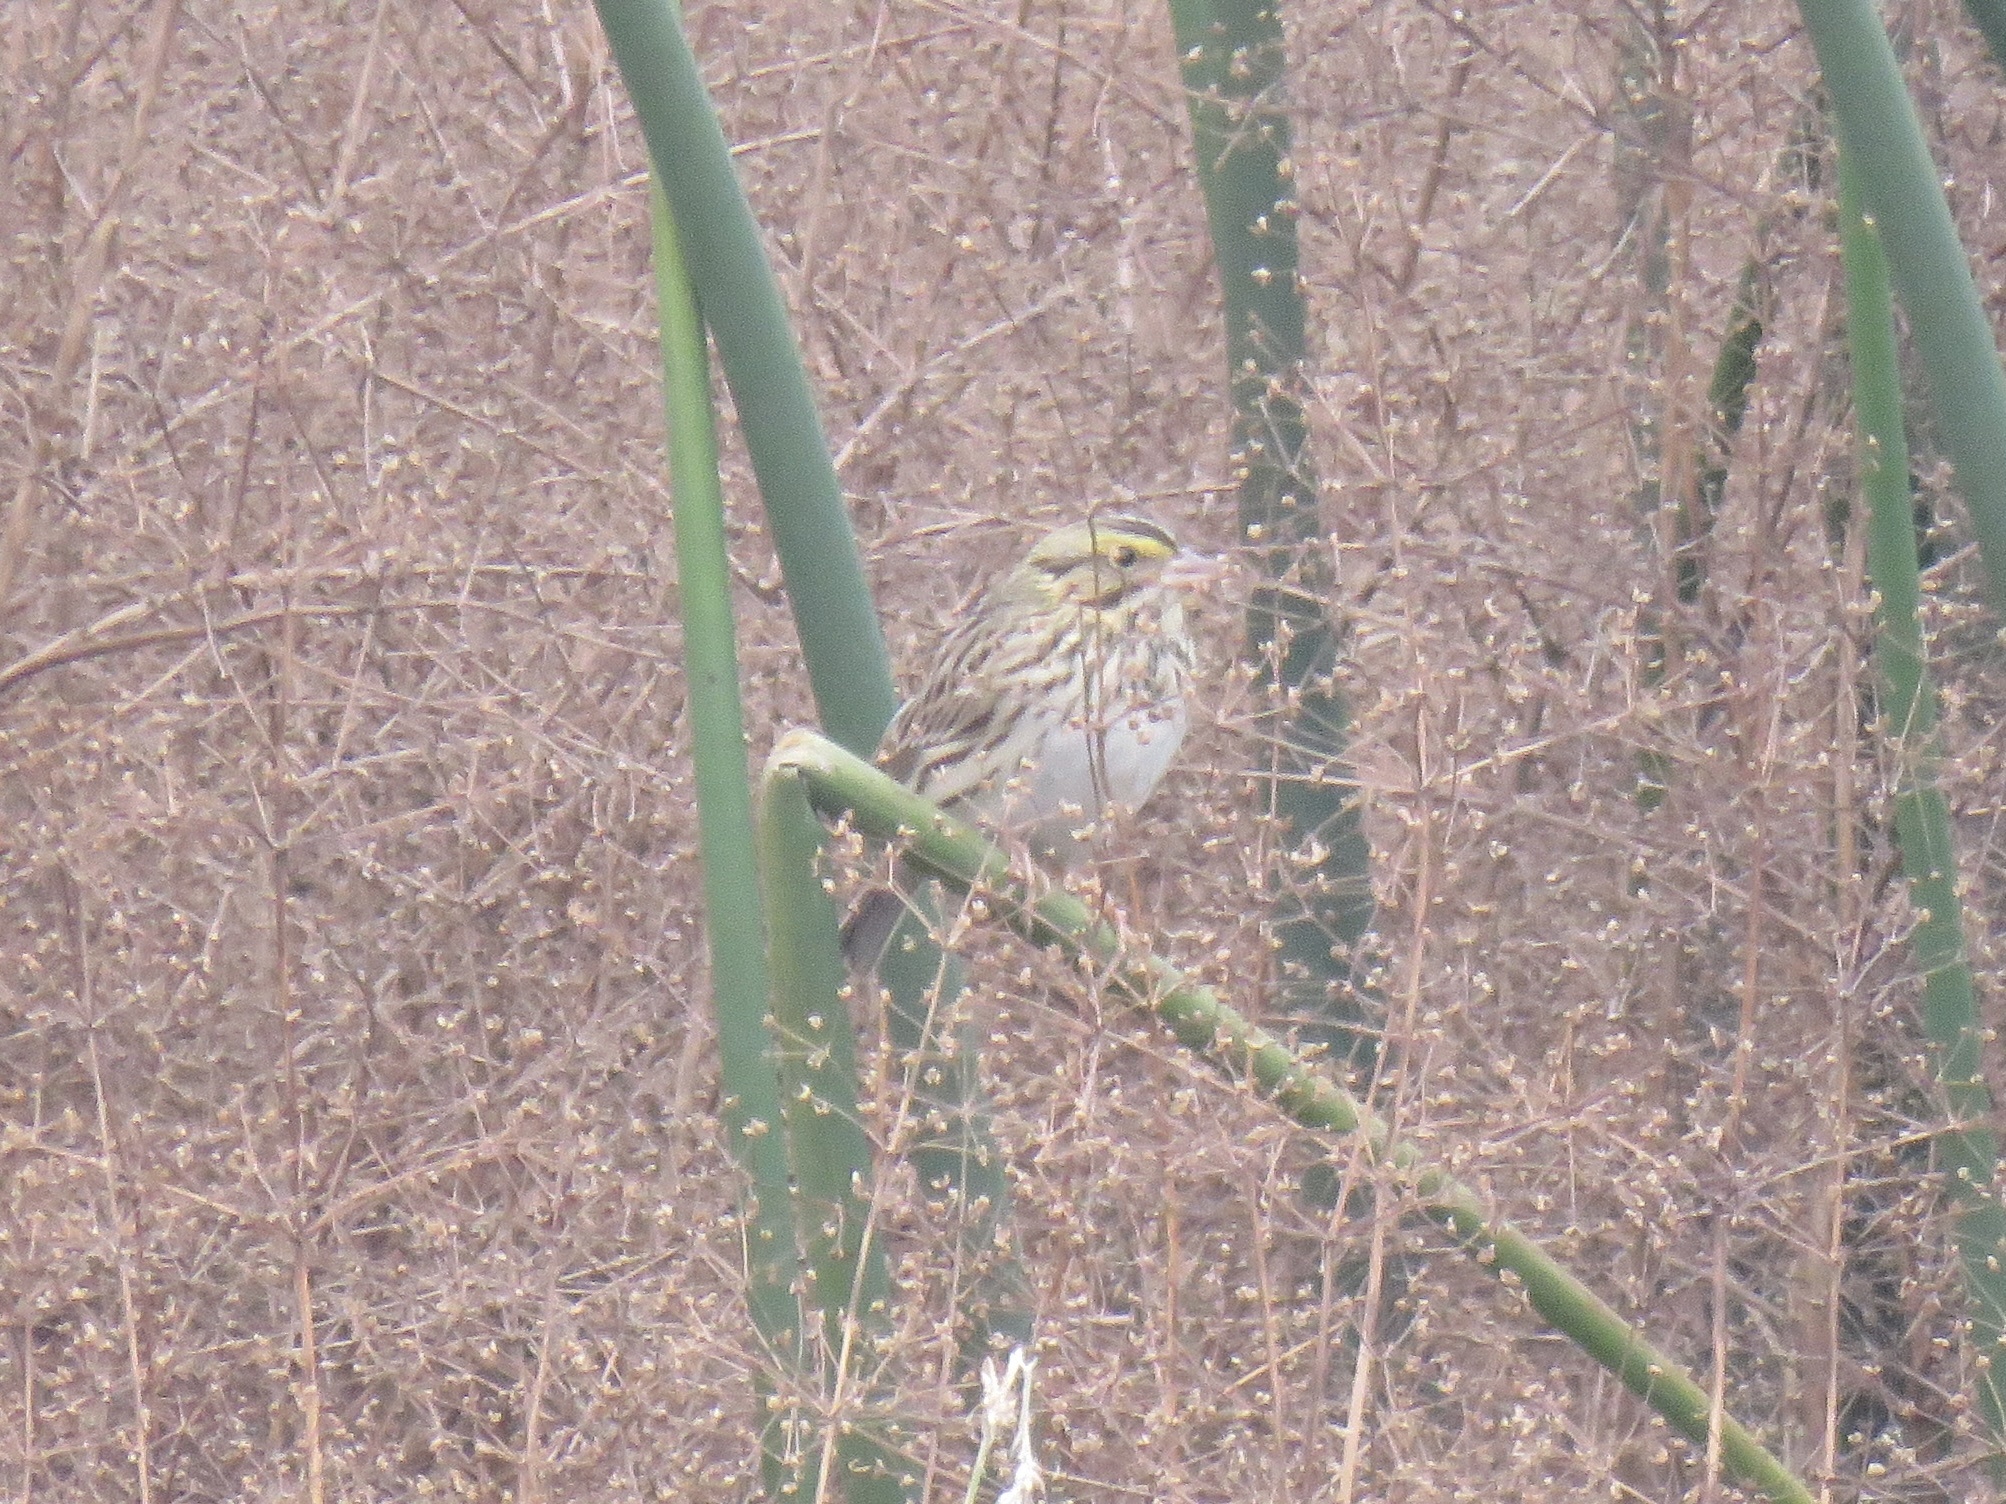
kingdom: Animalia
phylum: Chordata
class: Aves
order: Passeriformes
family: Passerellidae
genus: Passerculus
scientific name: Passerculus sandwichensis
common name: Savannah sparrow
